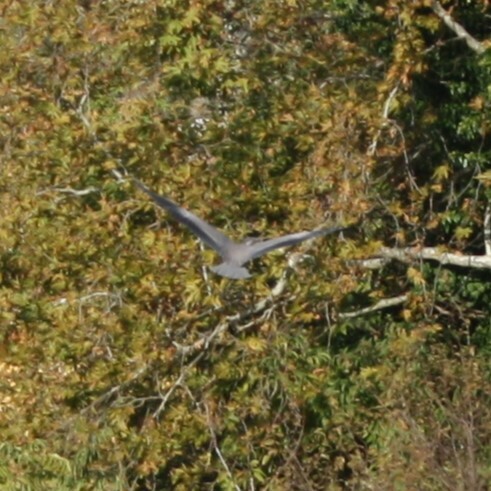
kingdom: Animalia
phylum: Chordata
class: Aves
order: Pelecaniformes
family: Ardeidae
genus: Ardea
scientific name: Ardea cinerea
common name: Grey heron
